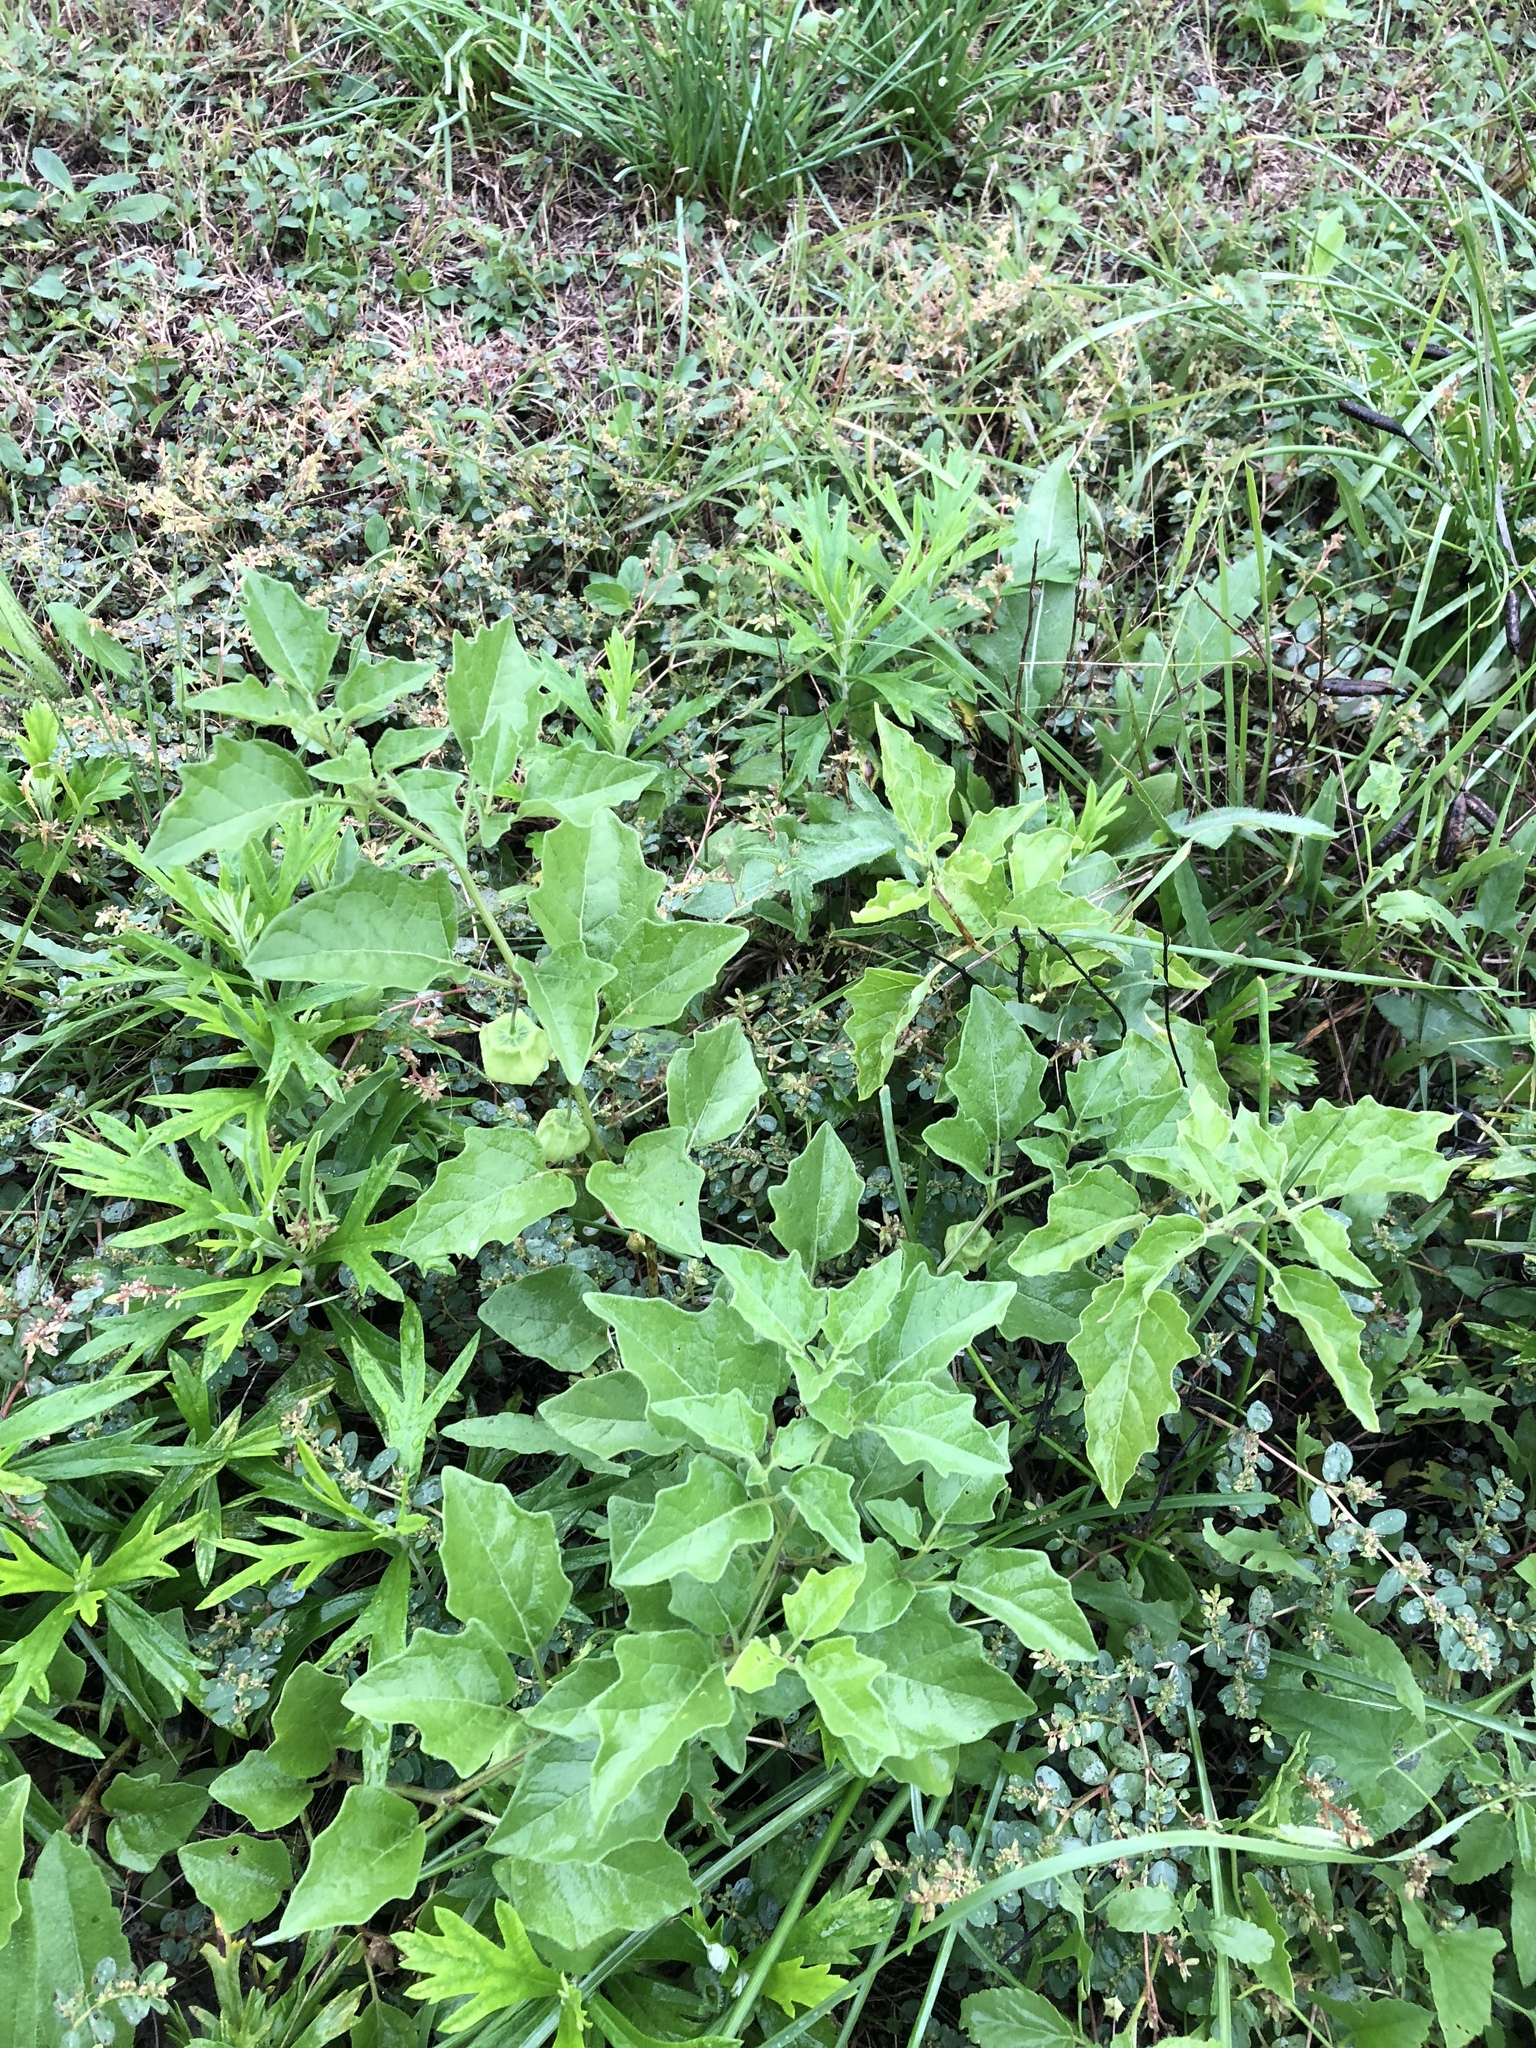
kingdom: Plantae
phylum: Tracheophyta
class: Magnoliopsida
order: Solanales
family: Solanaceae
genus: Physalis
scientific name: Physalis cinerascens
